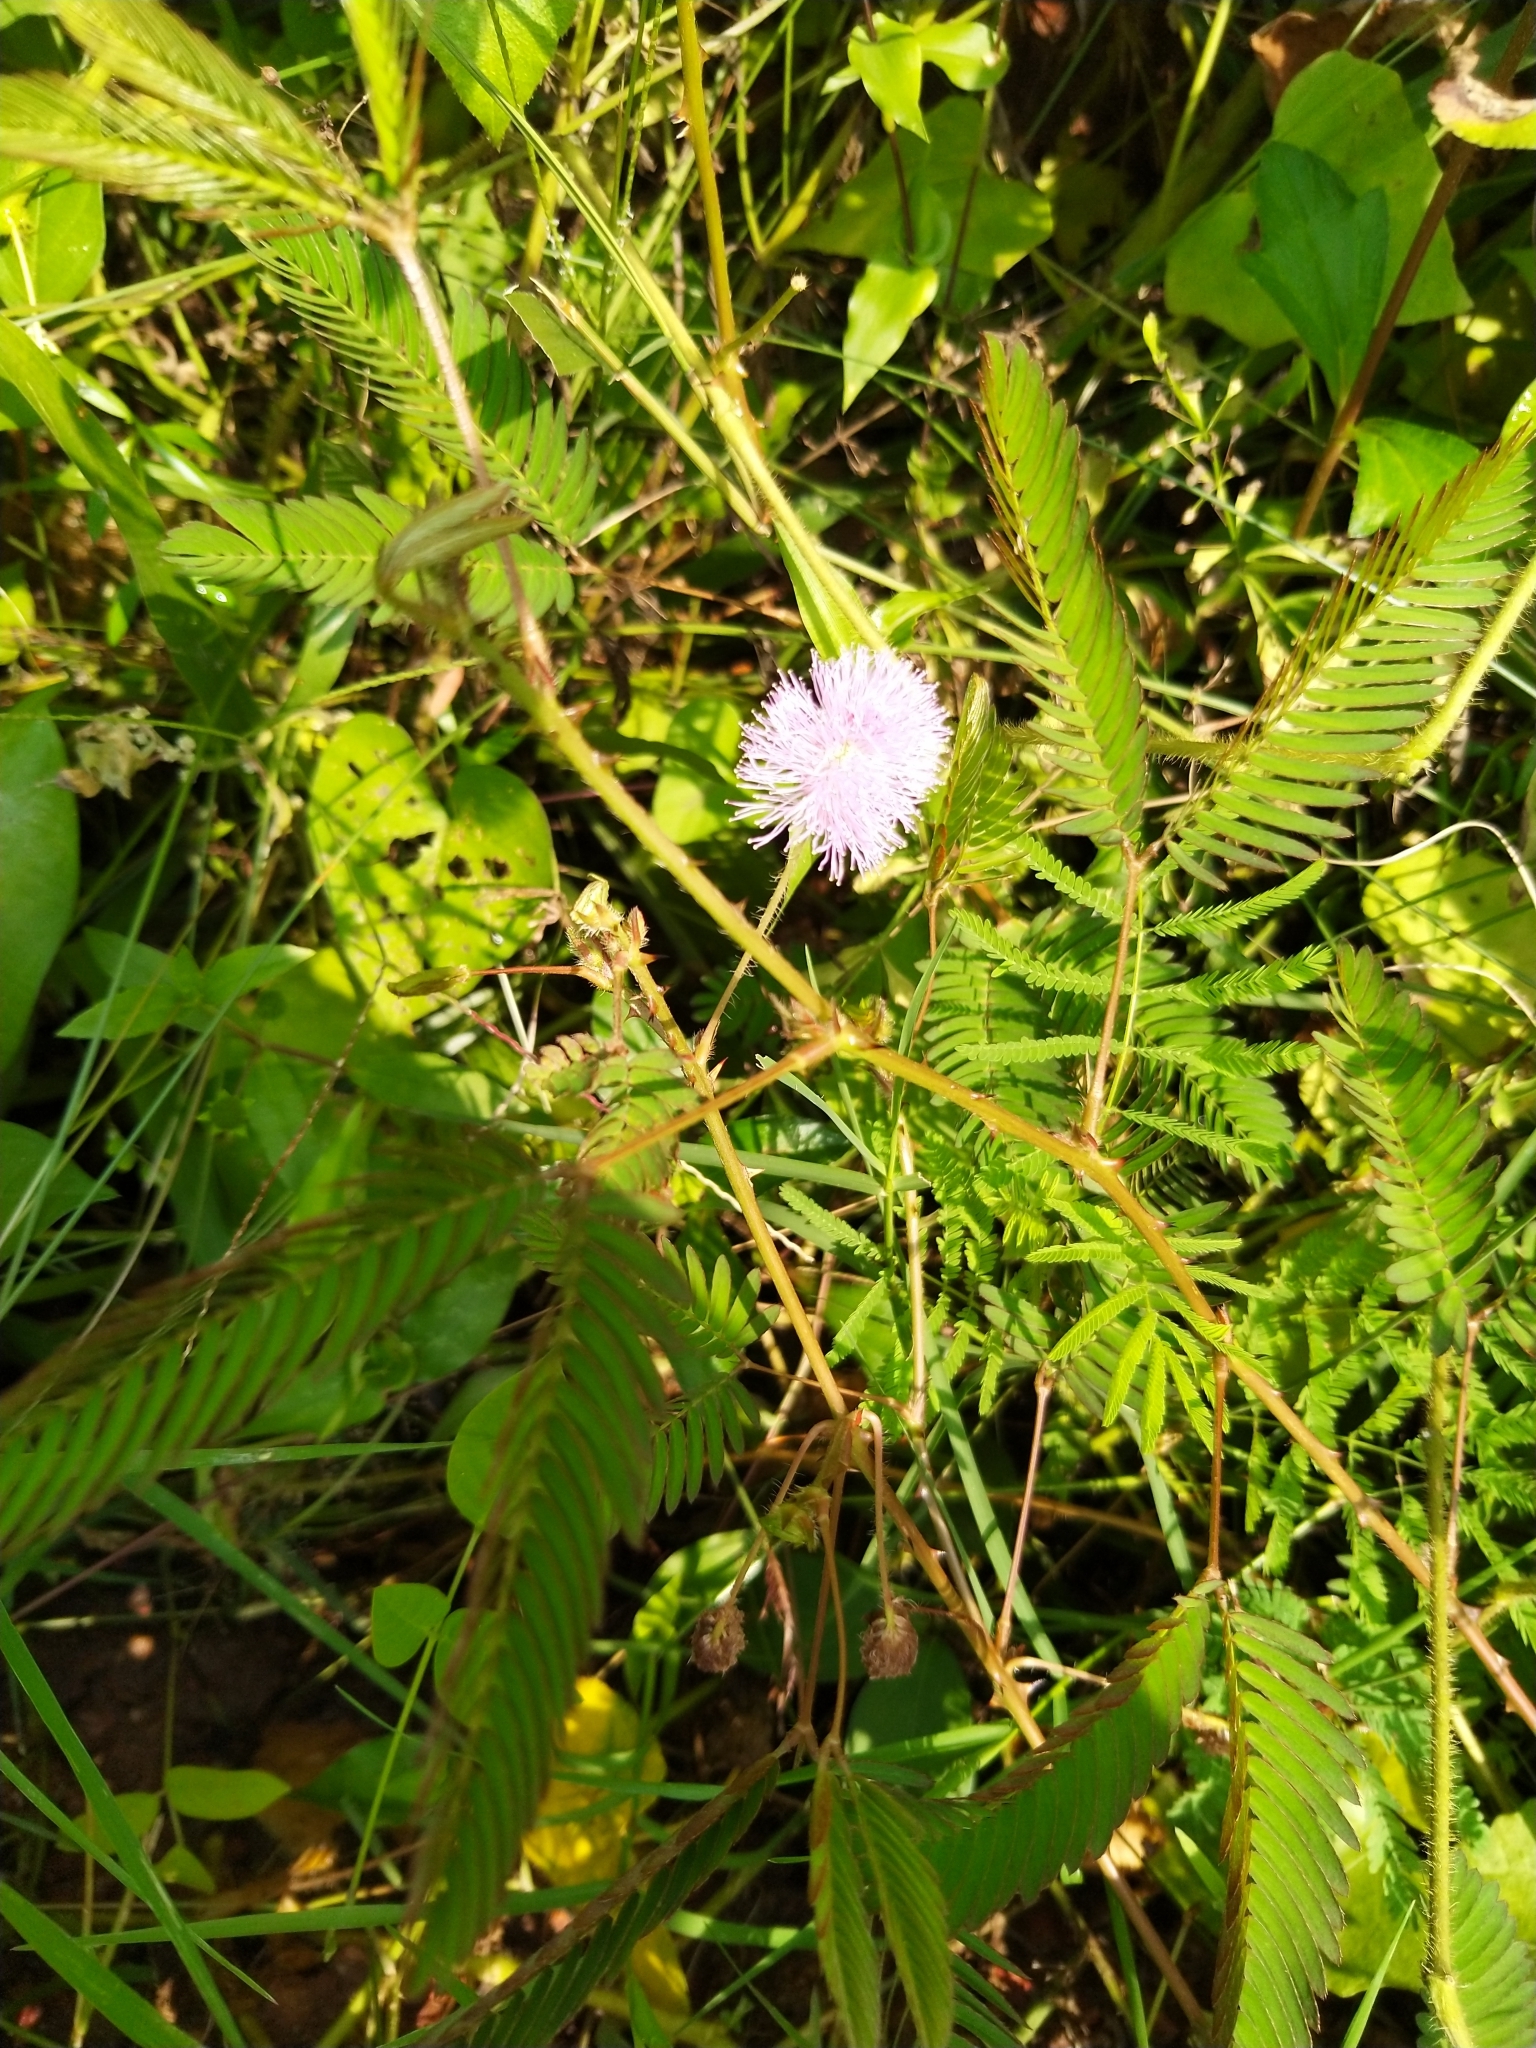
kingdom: Plantae
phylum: Tracheophyta
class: Magnoliopsida
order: Fabales
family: Fabaceae
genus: Mimosa
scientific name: Mimosa pudica
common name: Sensitive plant
